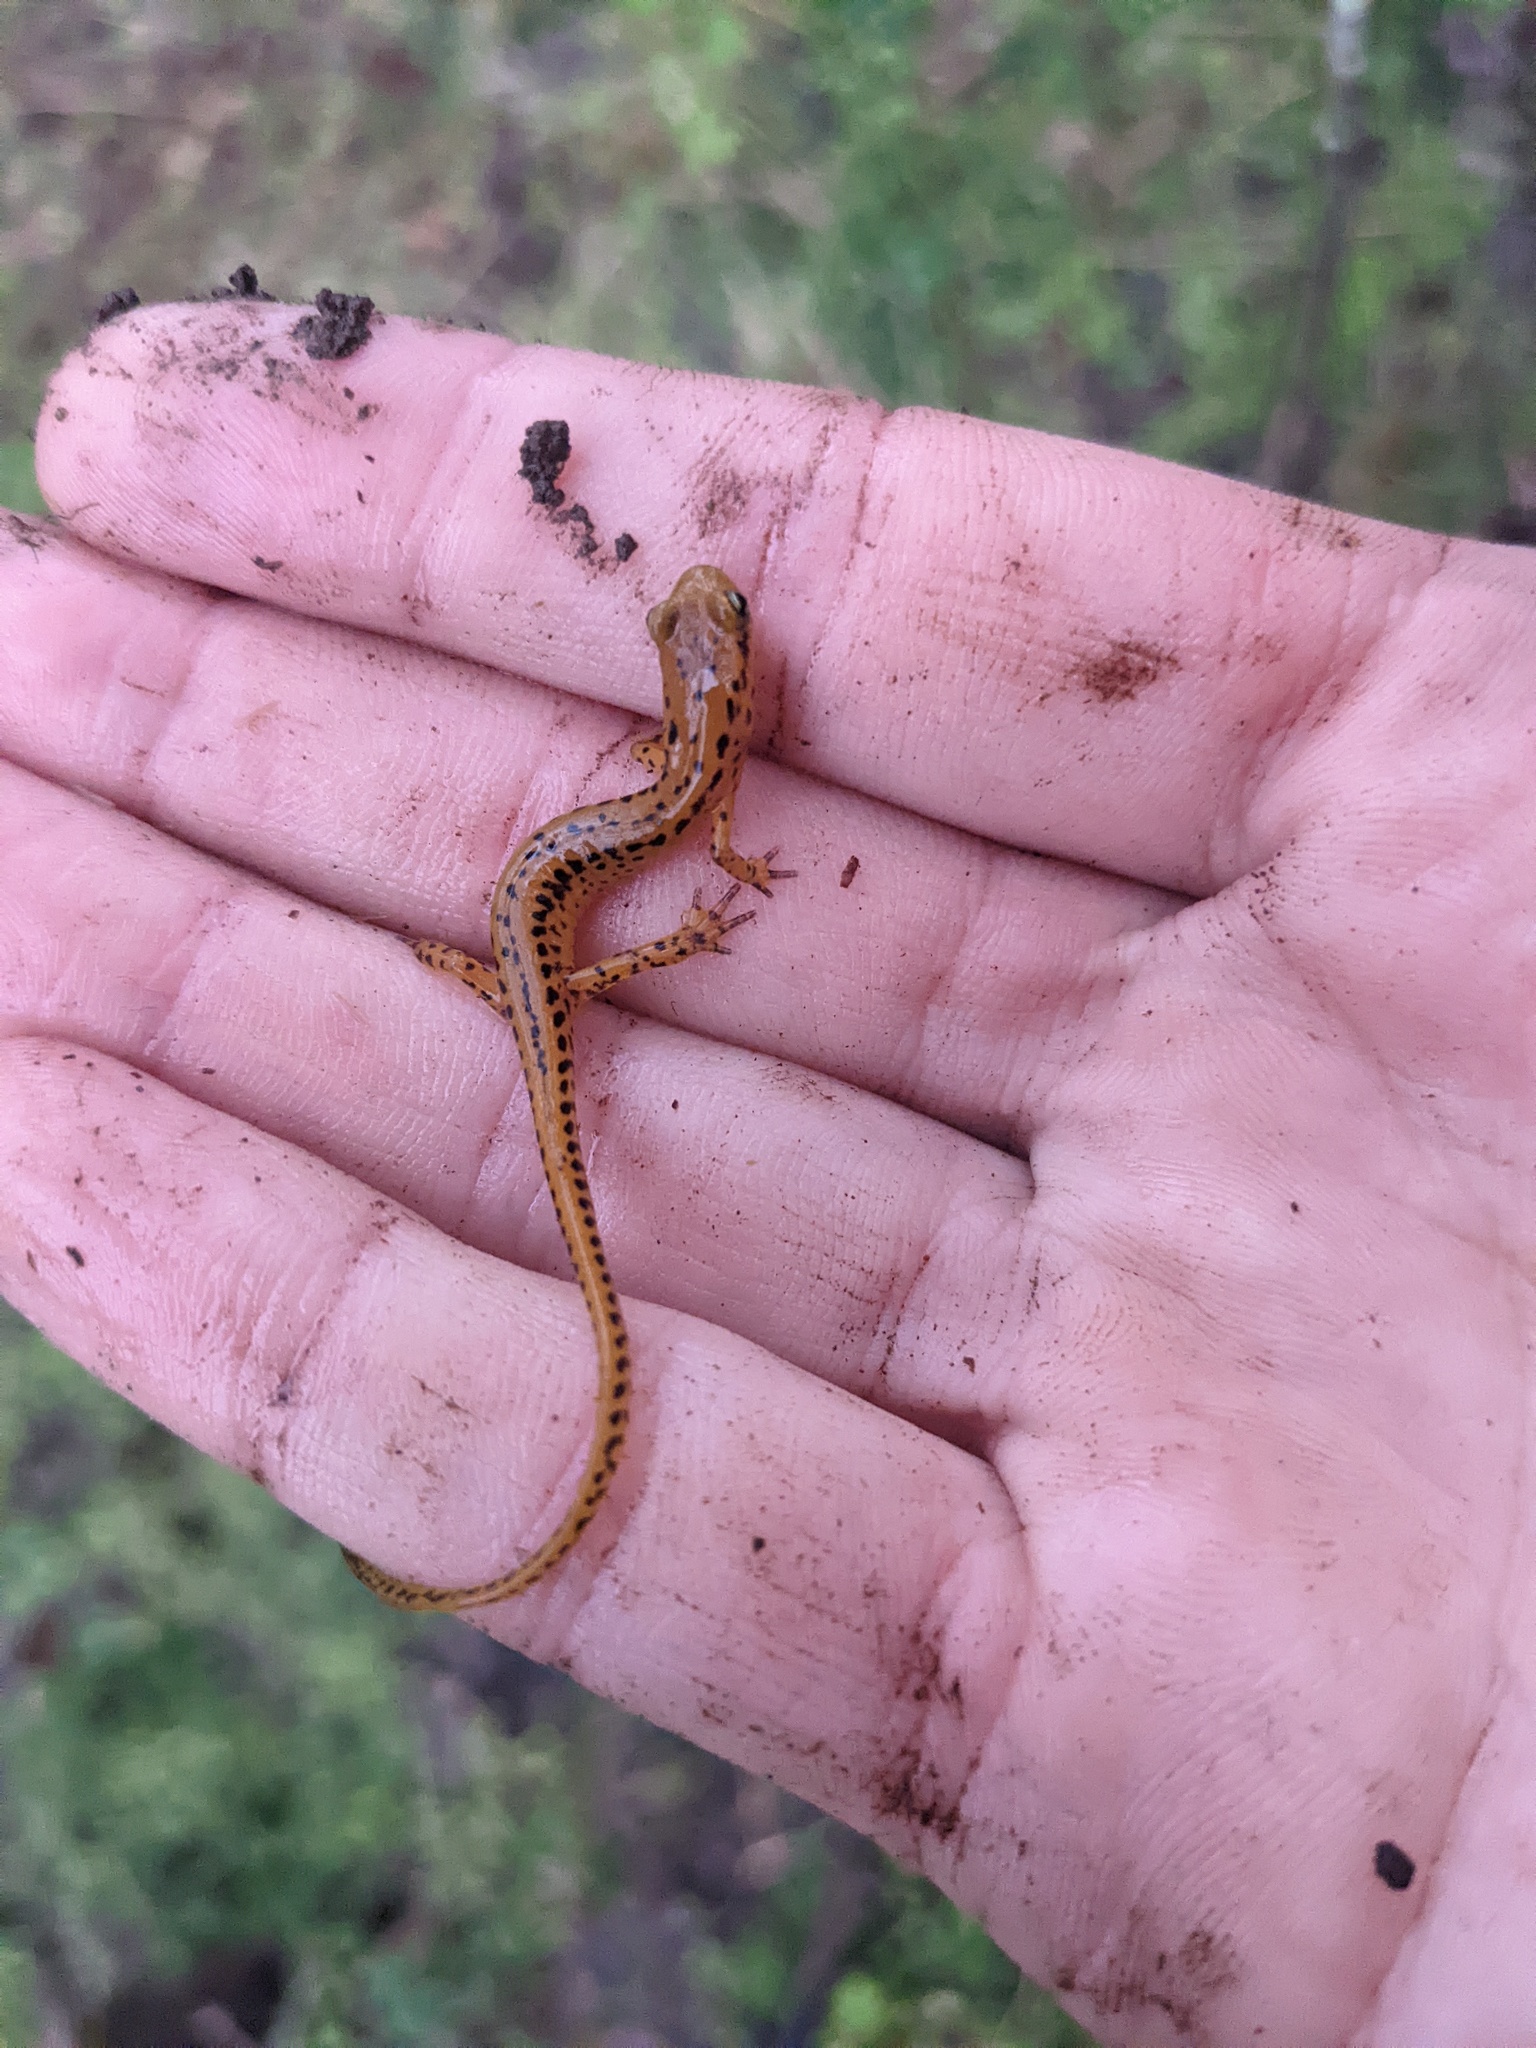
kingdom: Animalia
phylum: Chordata
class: Amphibia
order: Caudata
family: Plethodontidae
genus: Eurycea
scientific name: Eurycea longicauda
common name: Long-tailed salamander
